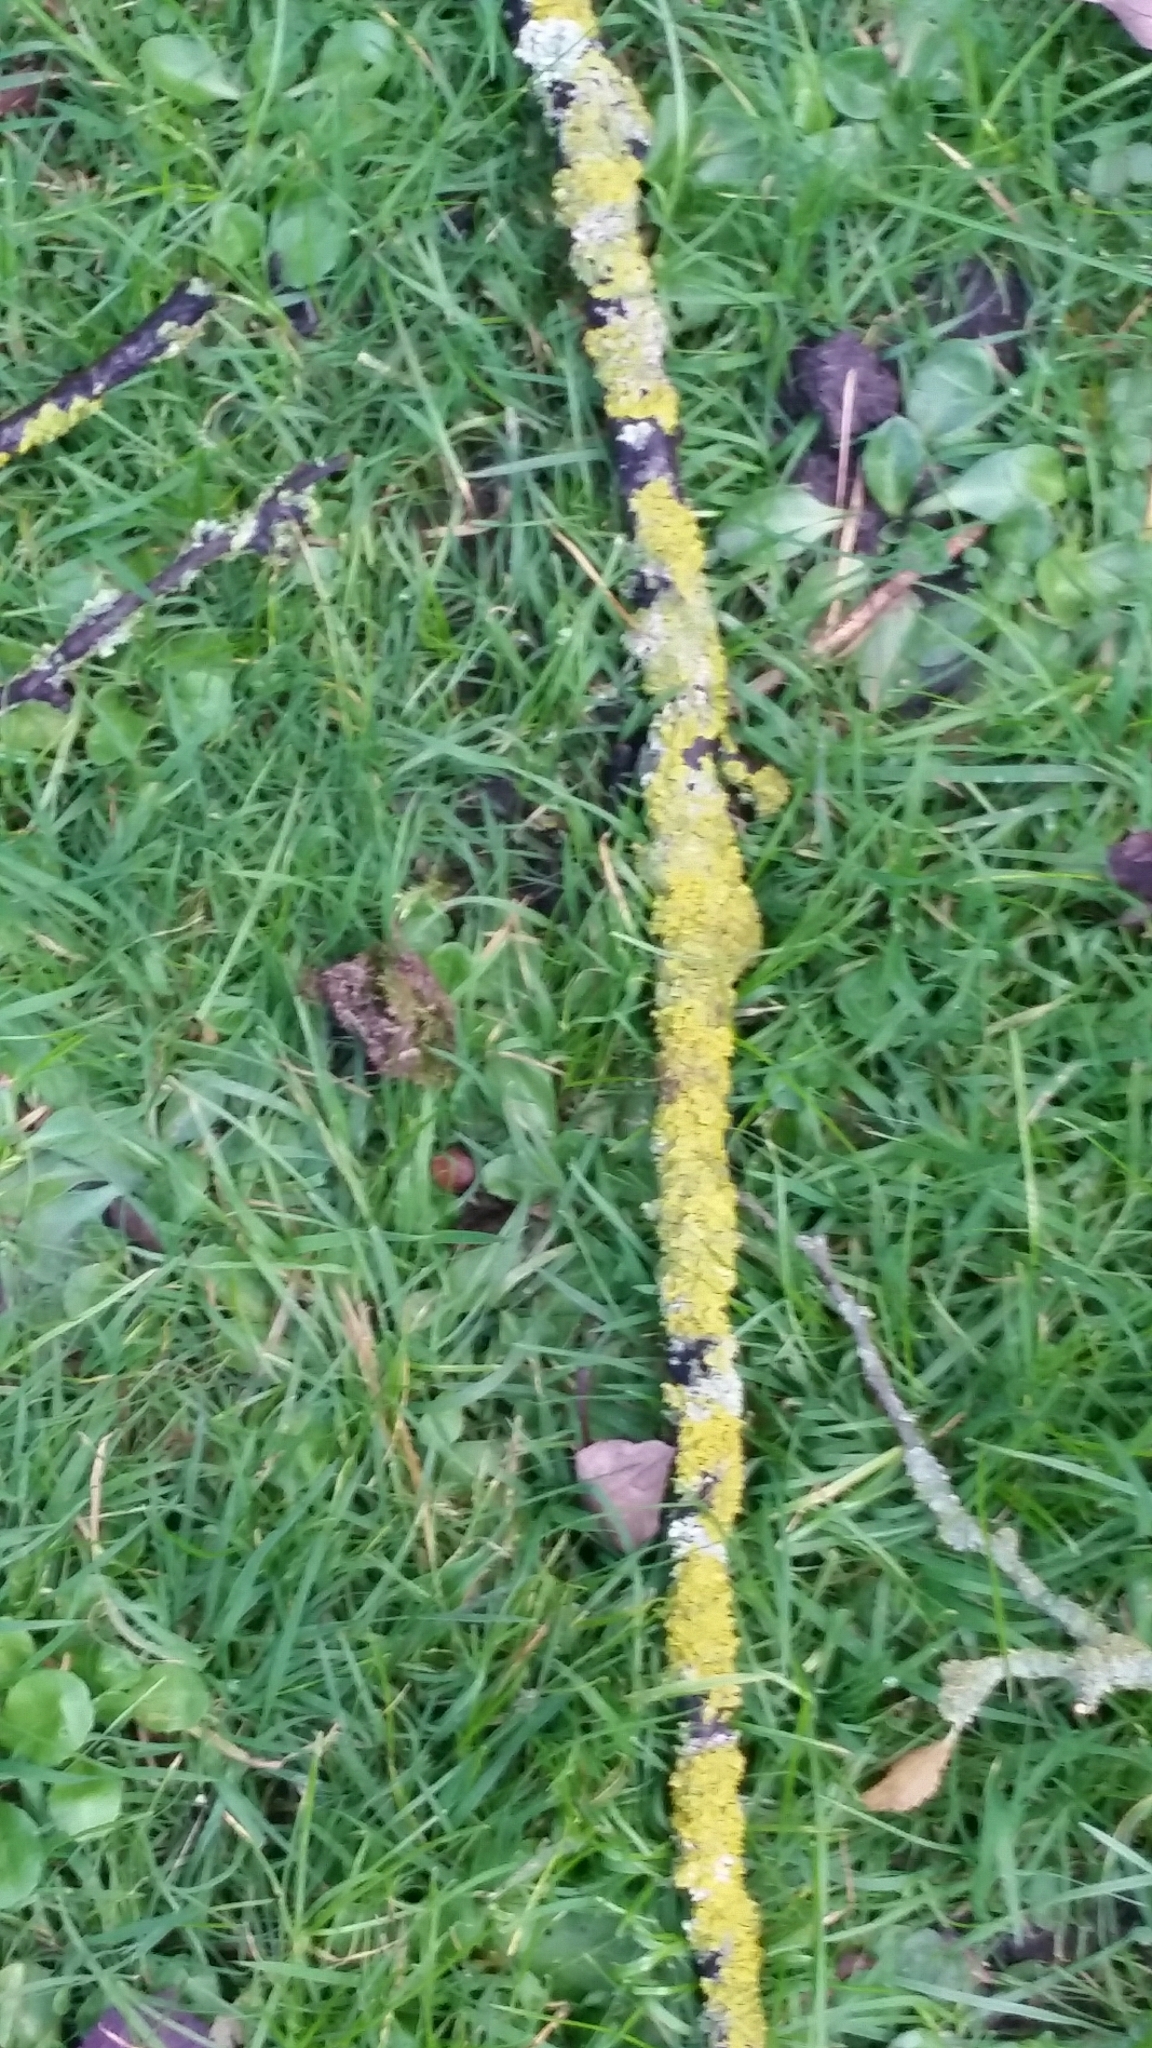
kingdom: Fungi
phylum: Ascomycota
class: Lecanoromycetes
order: Teloschistales
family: Teloschistaceae
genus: Xanthoria
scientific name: Xanthoria parietina
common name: Common orange lichen
